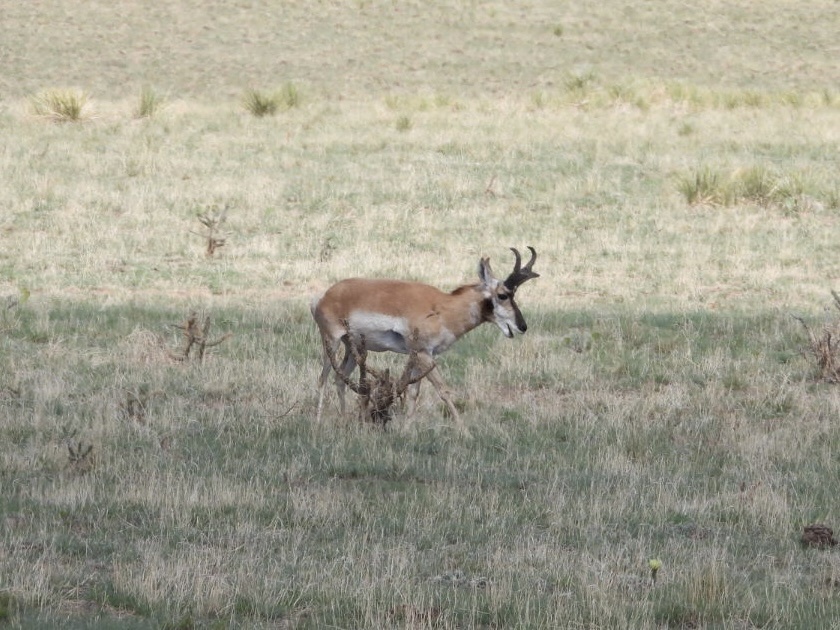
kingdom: Animalia
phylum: Chordata
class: Mammalia
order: Artiodactyla
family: Antilocapridae
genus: Antilocapra
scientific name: Antilocapra americana
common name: Pronghorn
